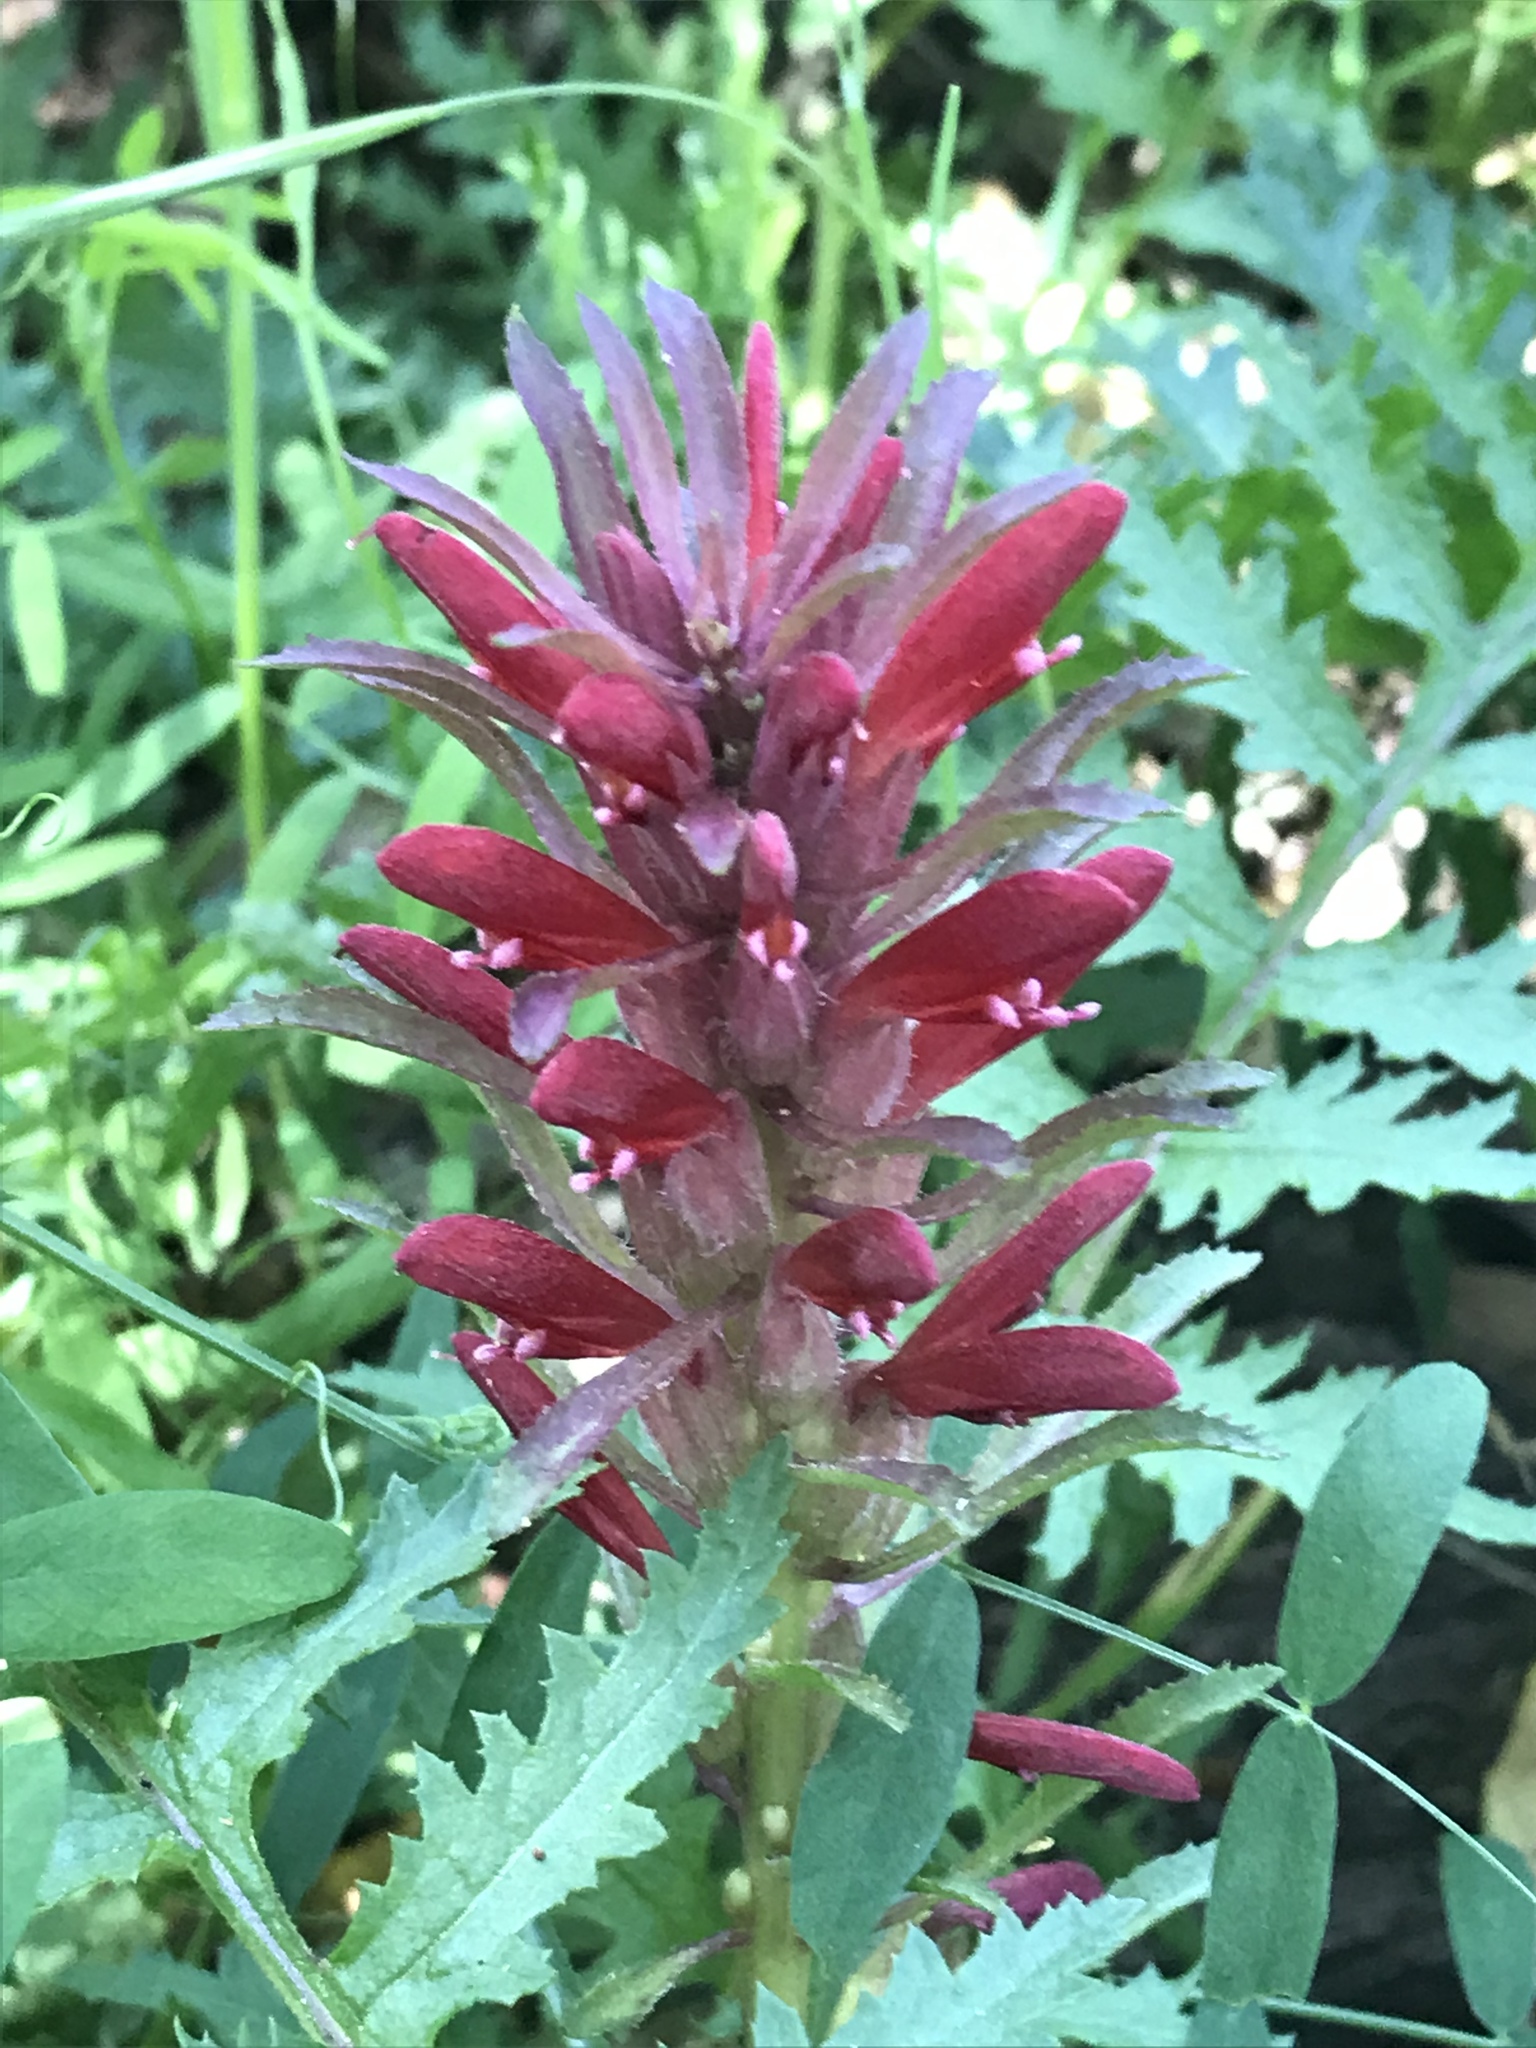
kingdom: Plantae
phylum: Tracheophyta
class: Magnoliopsida
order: Lamiales
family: Orobanchaceae
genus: Pedicularis
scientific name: Pedicularis densiflora
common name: Indian warrior
